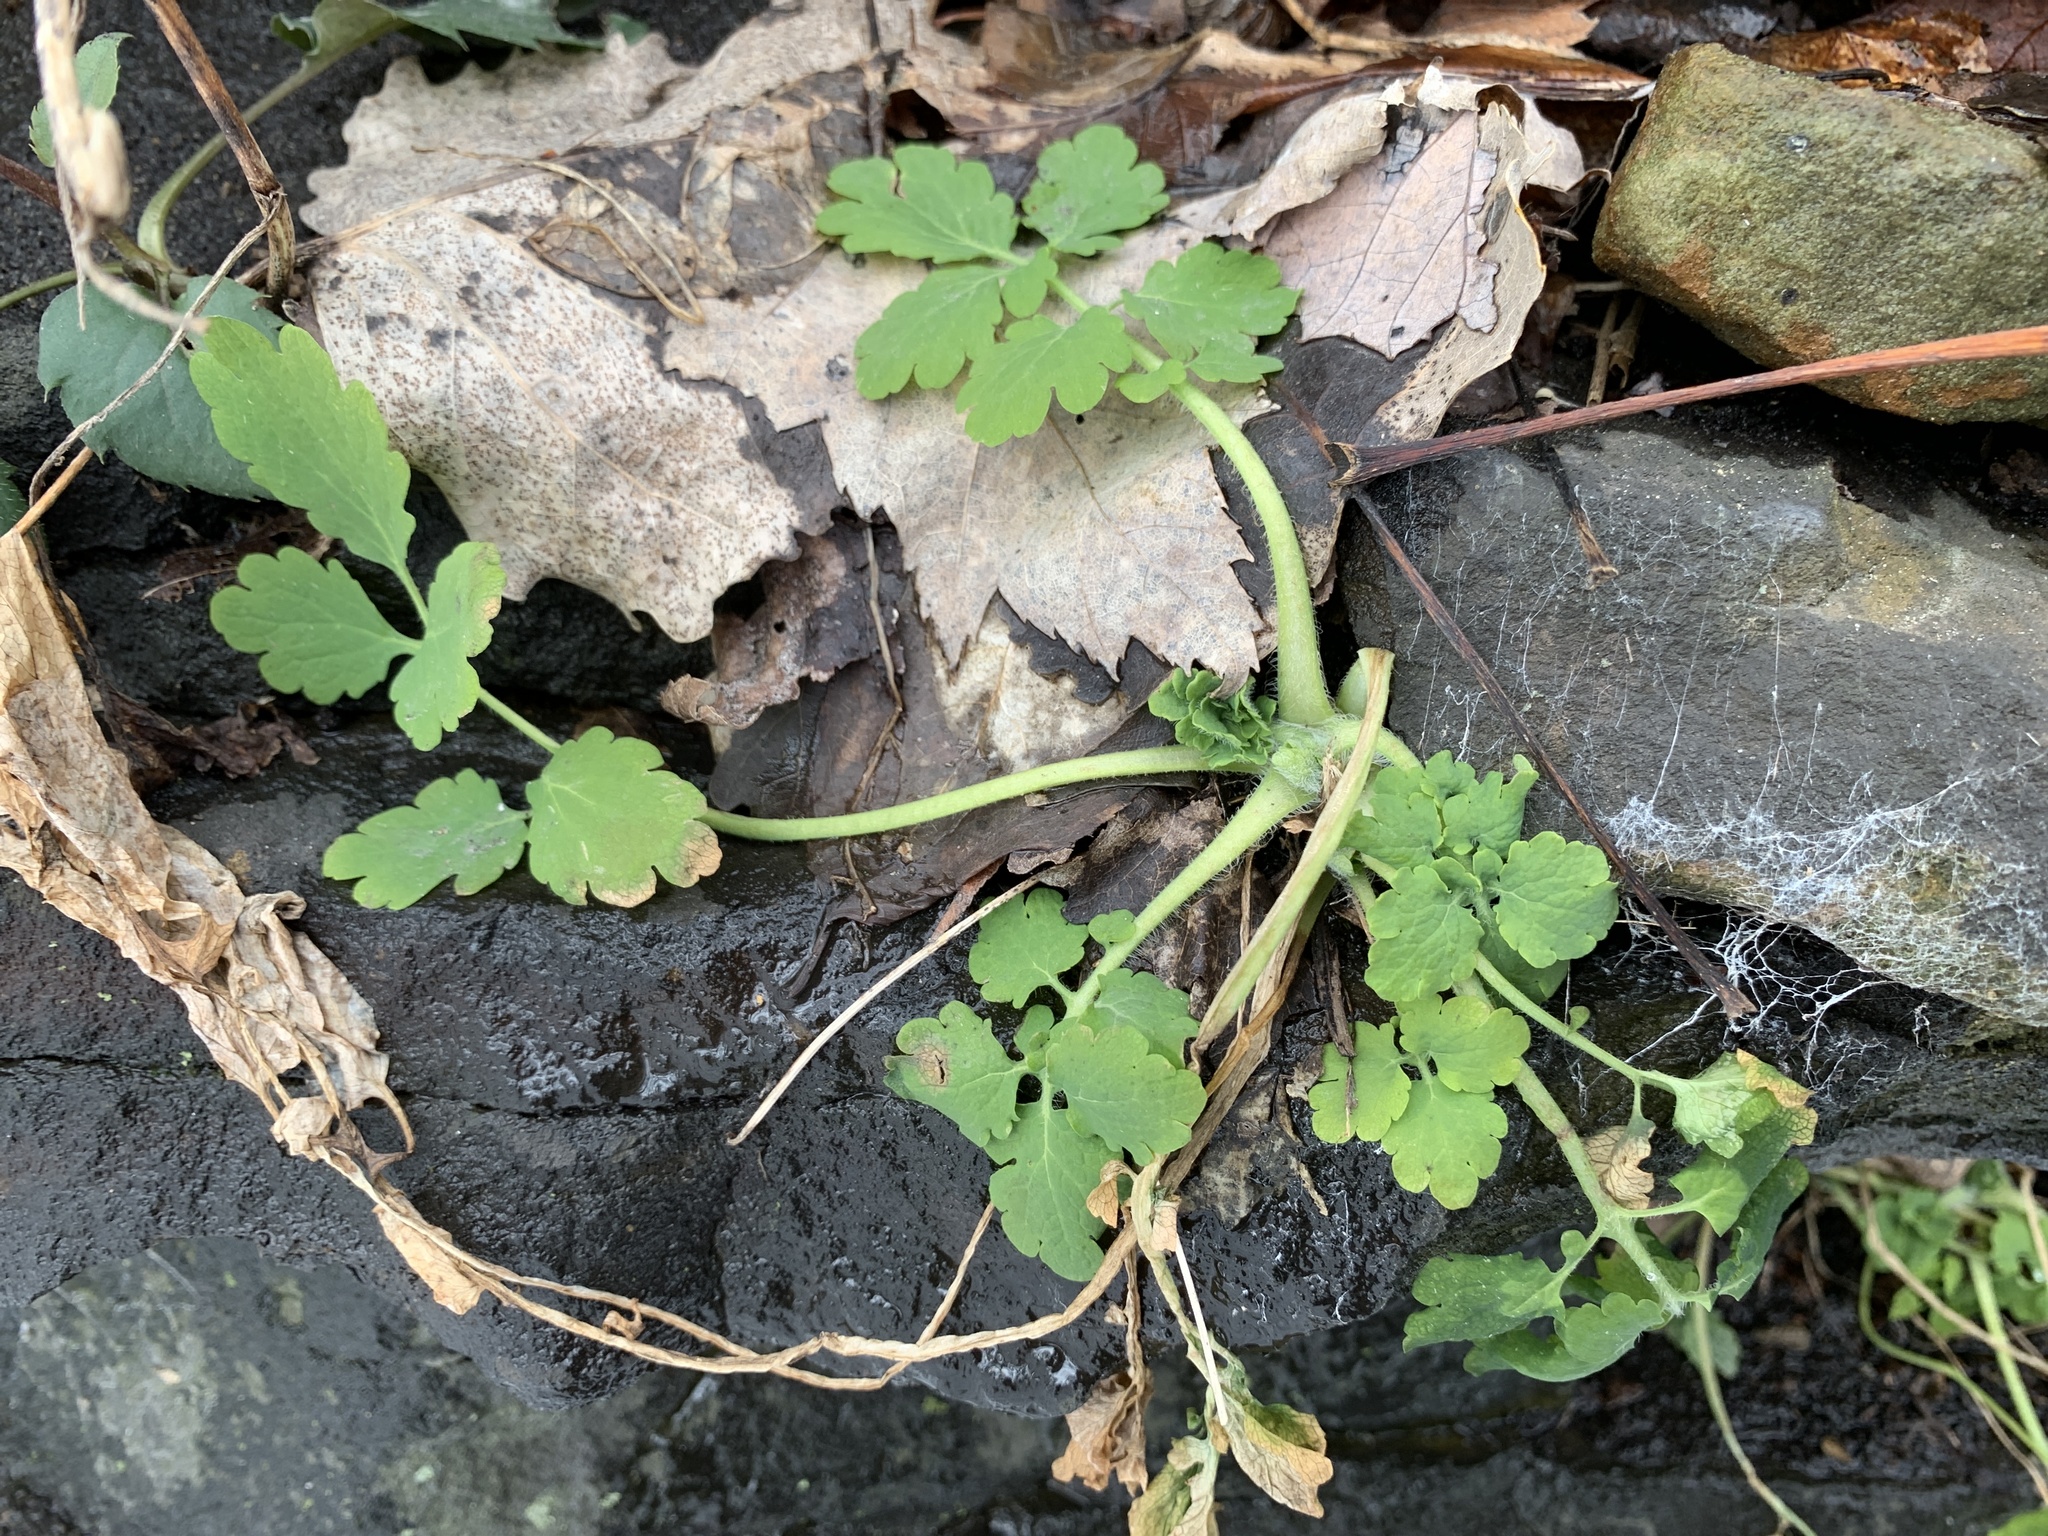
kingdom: Plantae
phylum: Tracheophyta
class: Magnoliopsida
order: Ranunculales
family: Papaveraceae
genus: Chelidonium
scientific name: Chelidonium majus
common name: Greater celandine
